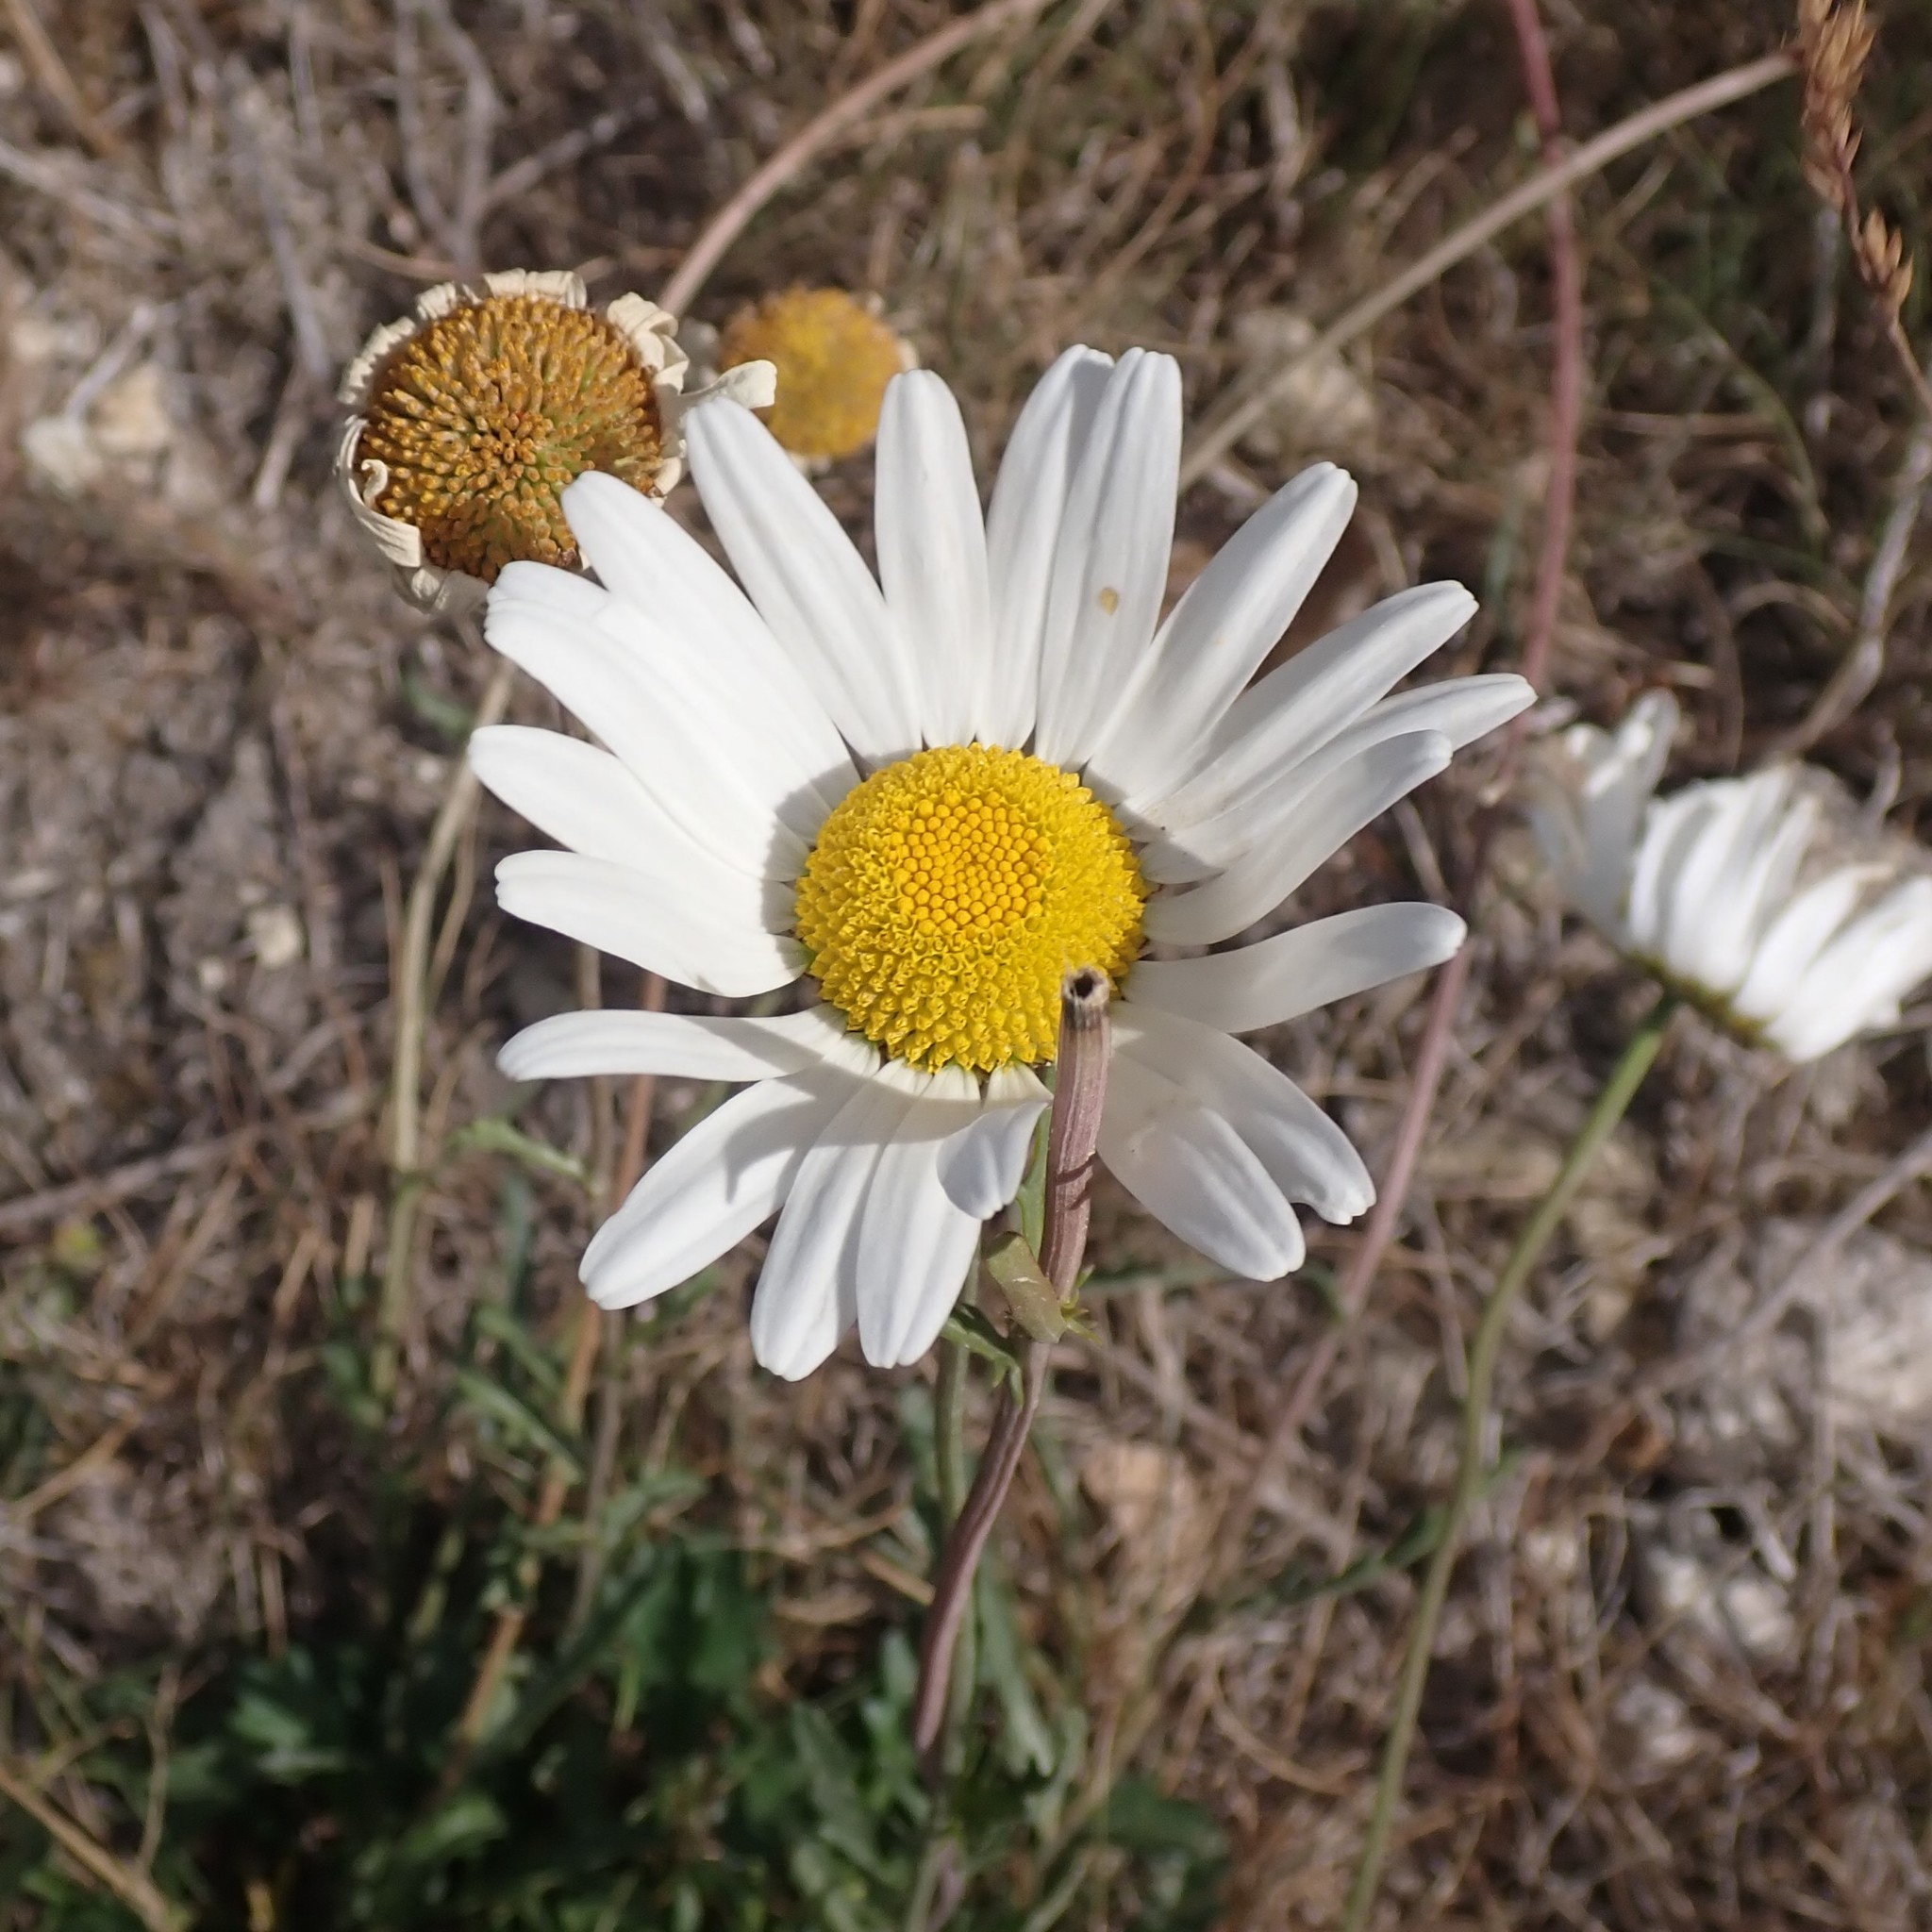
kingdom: Plantae
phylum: Tracheophyta
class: Magnoliopsida
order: Asterales
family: Asteraceae
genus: Leucanthemum
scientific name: Leucanthemum vulgare
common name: Oxeye daisy
